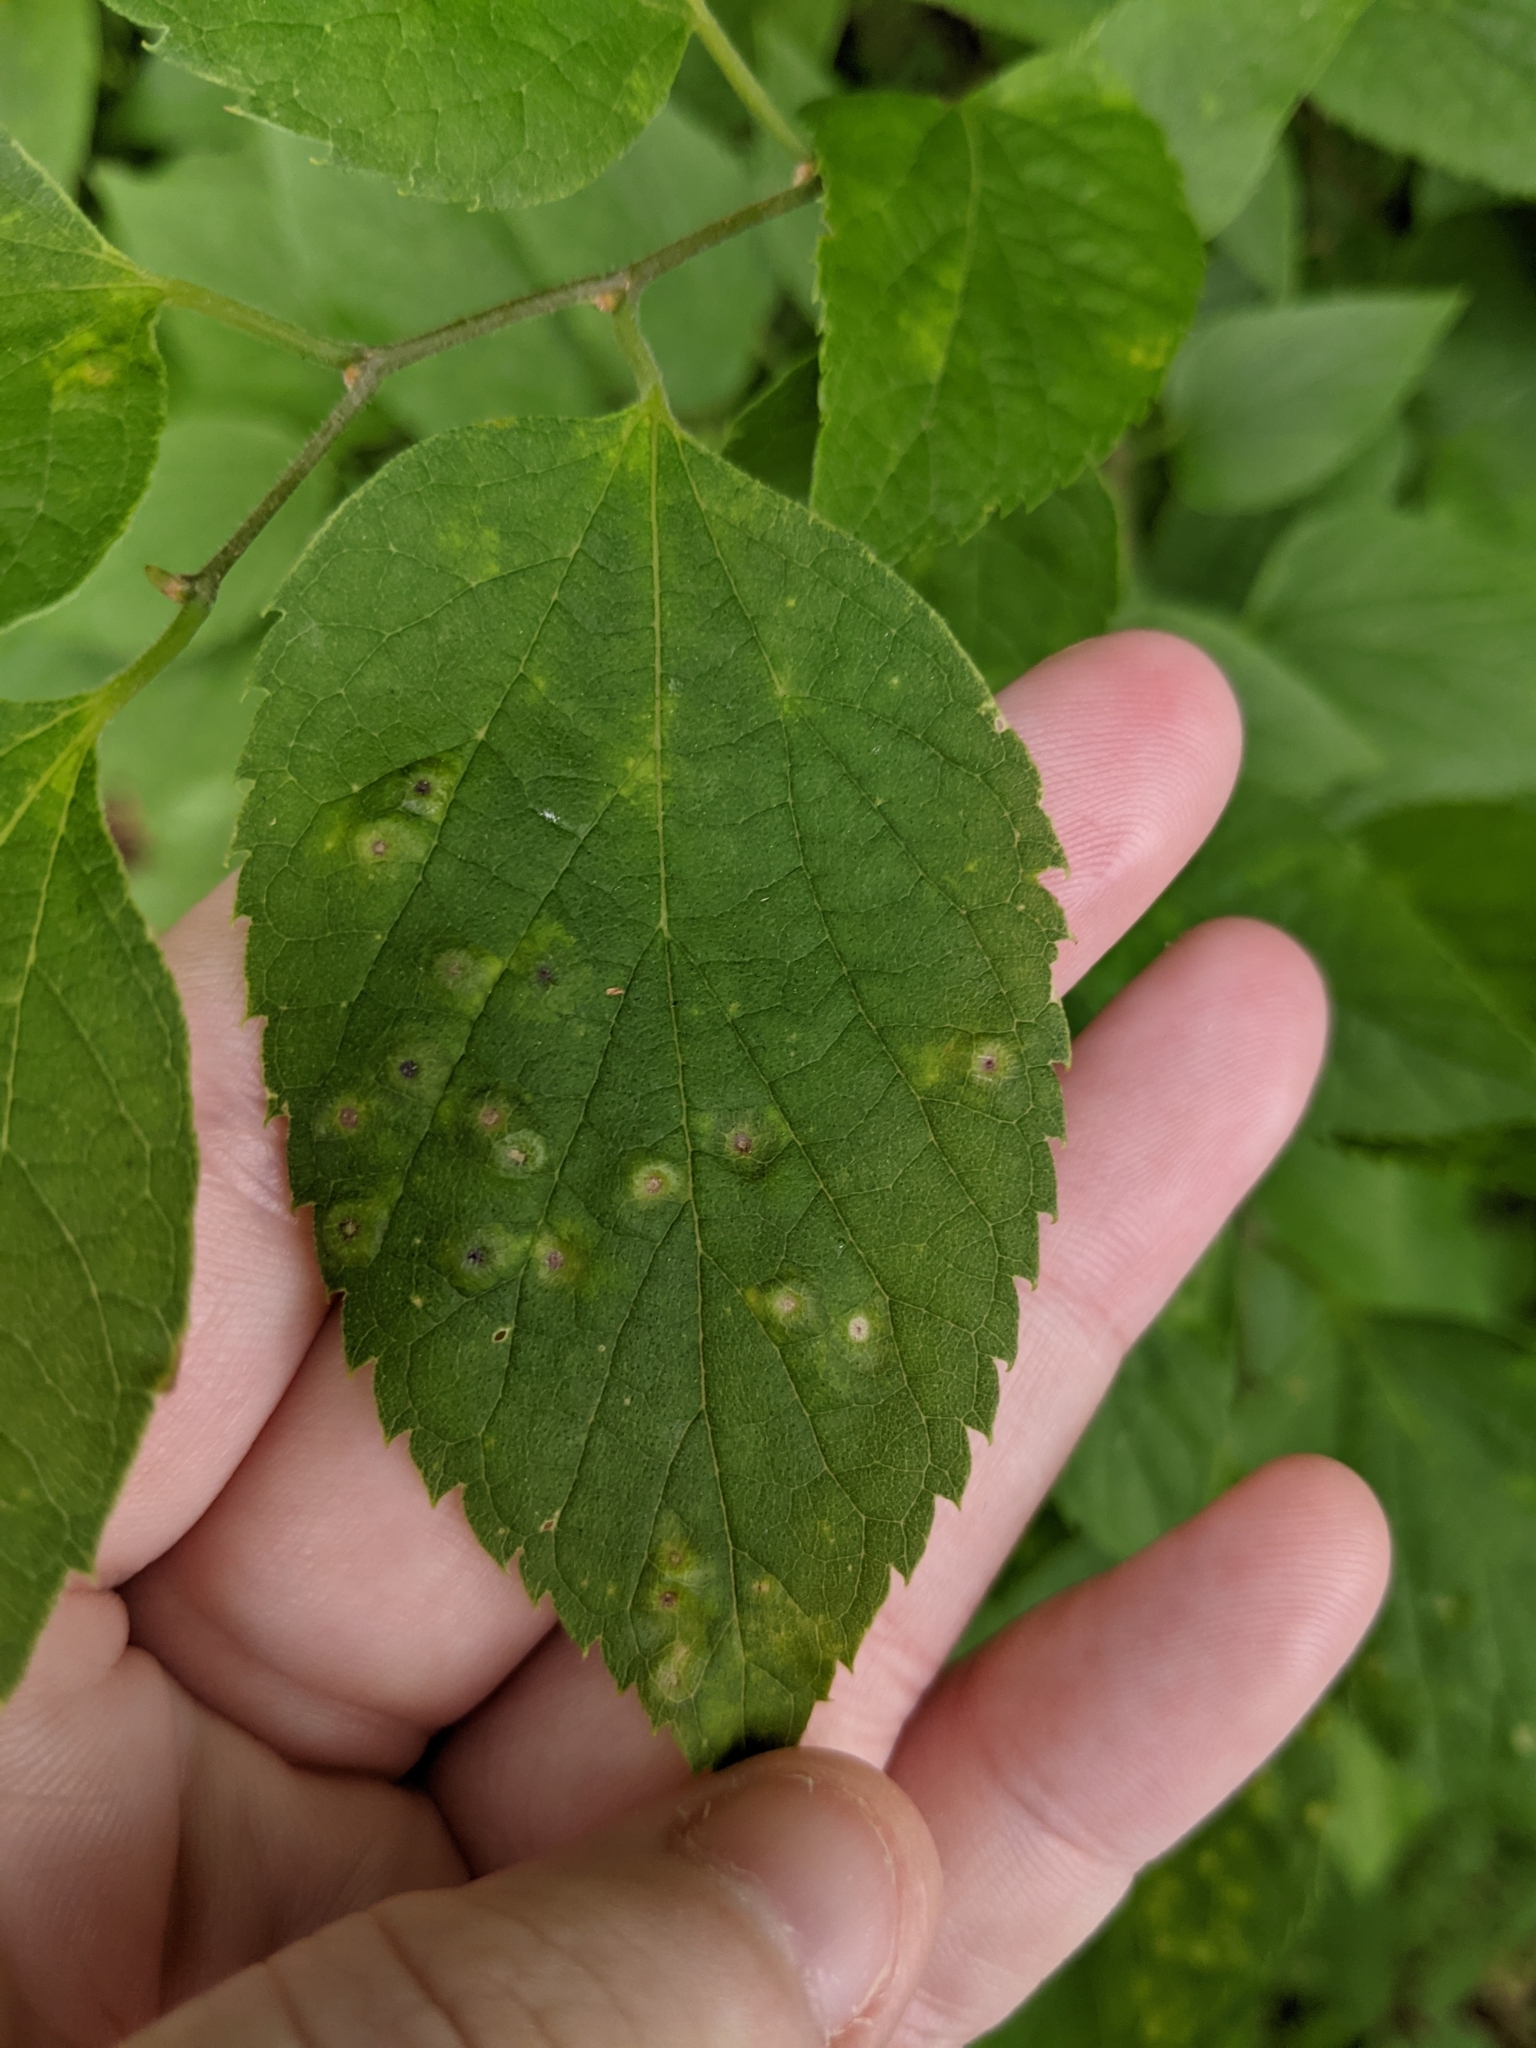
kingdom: Animalia
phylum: Arthropoda
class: Insecta
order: Hemiptera
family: Aphalaridae
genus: Pachypsylla
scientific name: Pachypsylla celtidisasterisca
